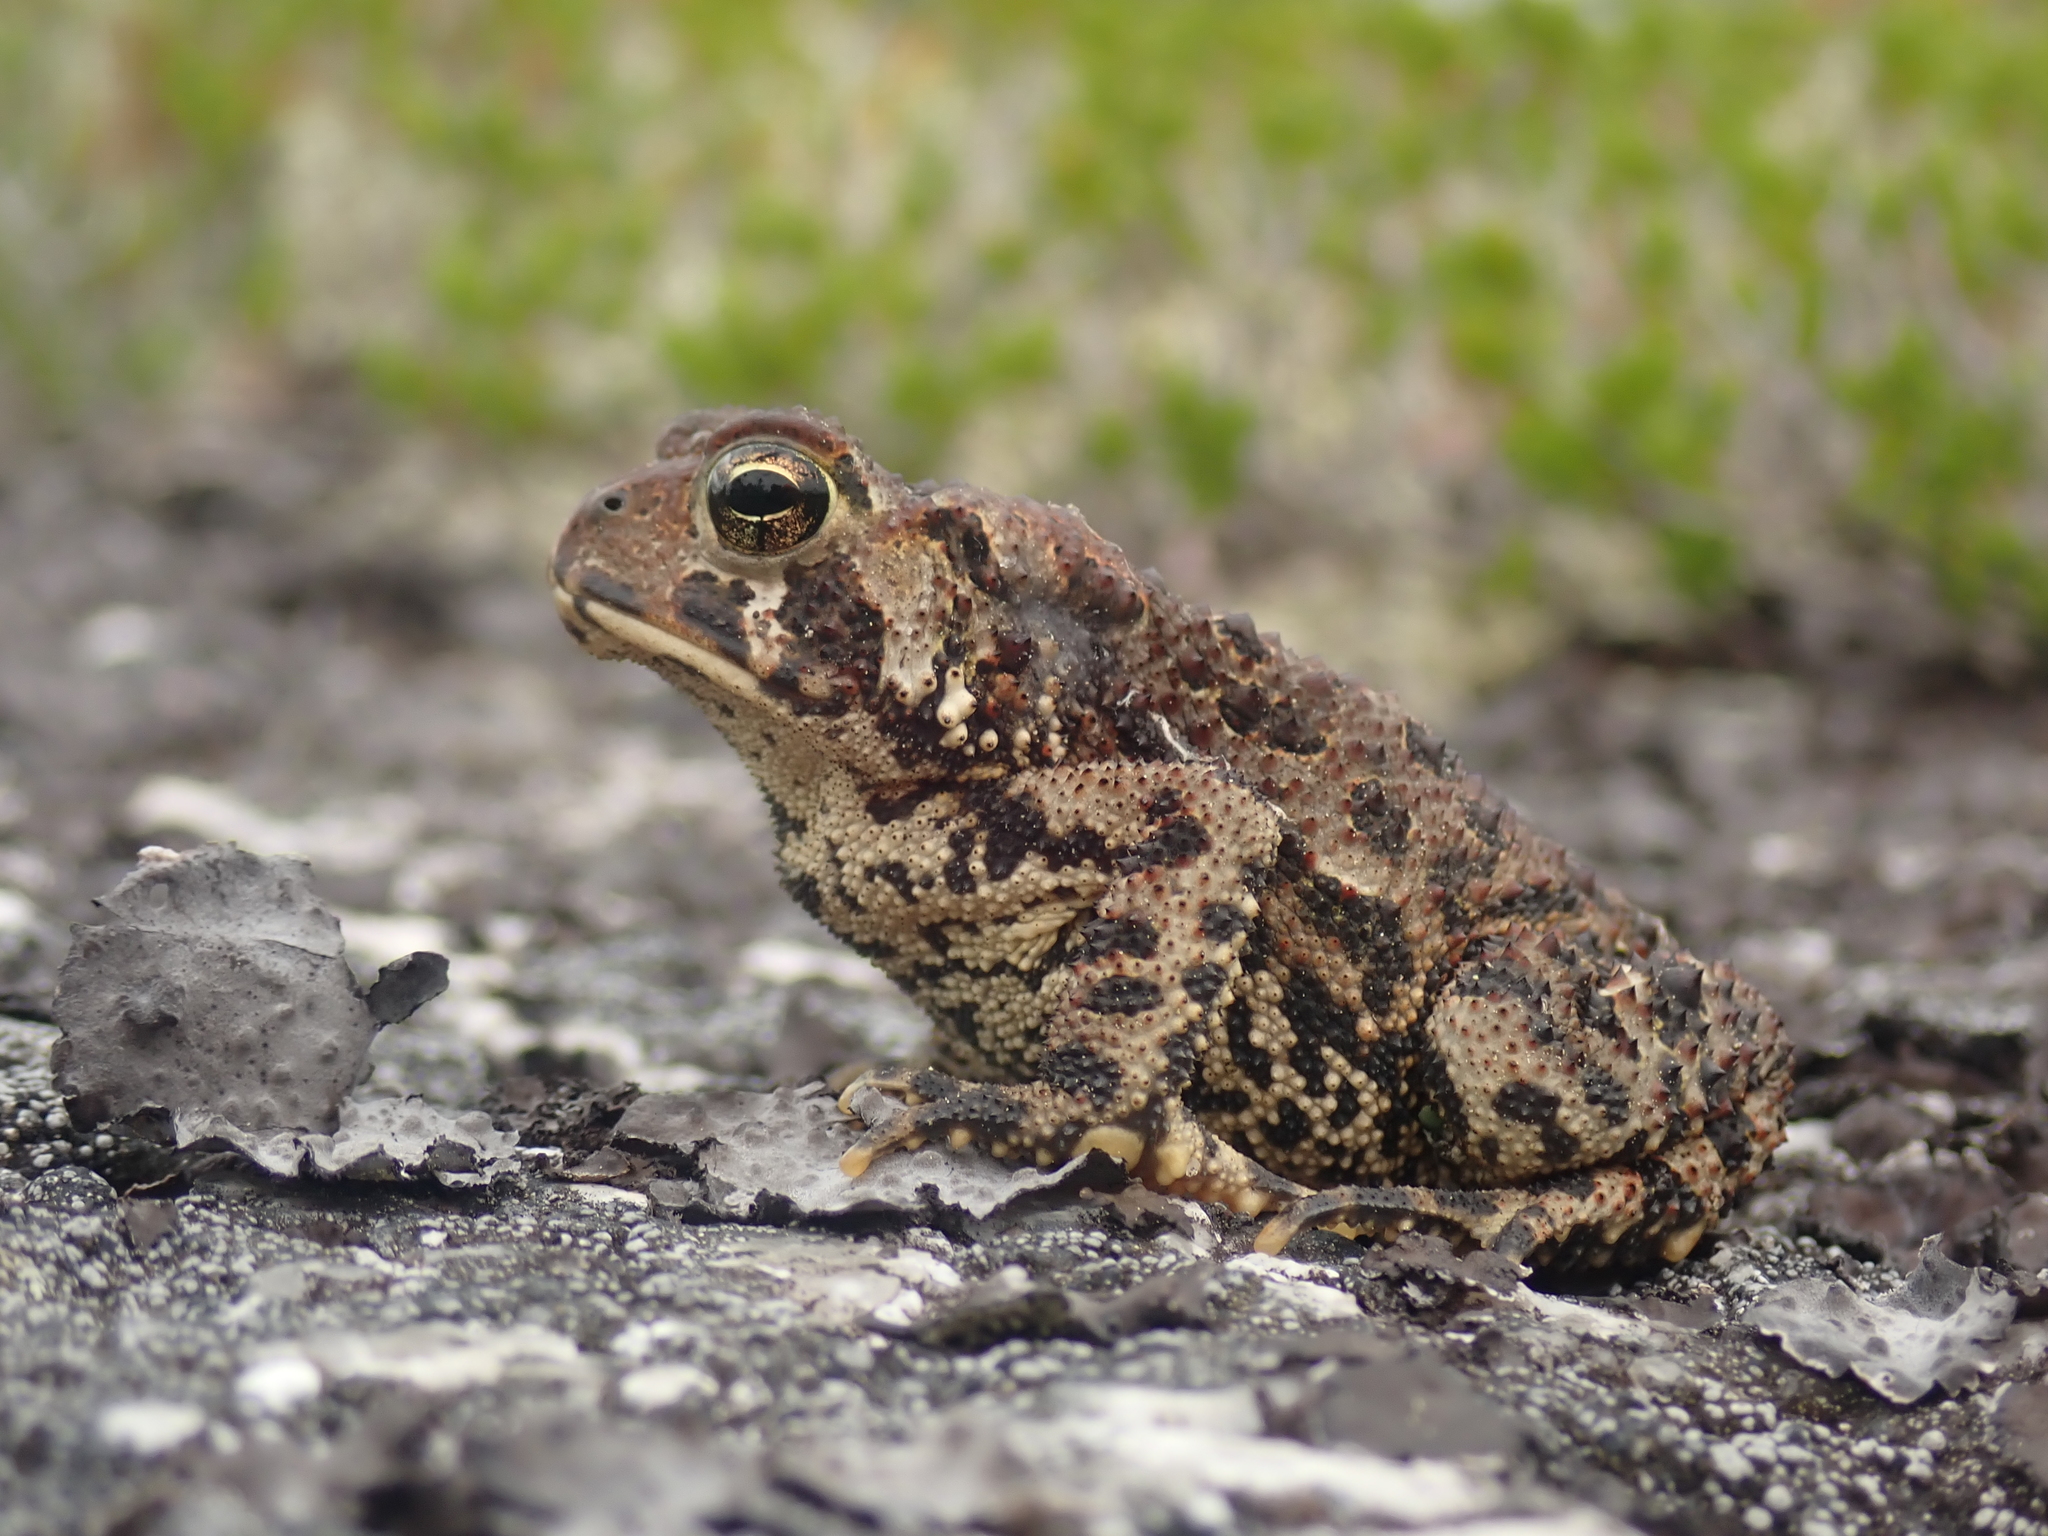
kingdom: Animalia
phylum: Chordata
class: Amphibia
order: Anura
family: Bufonidae
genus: Anaxyrus
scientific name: Anaxyrus americanus
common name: American toad
